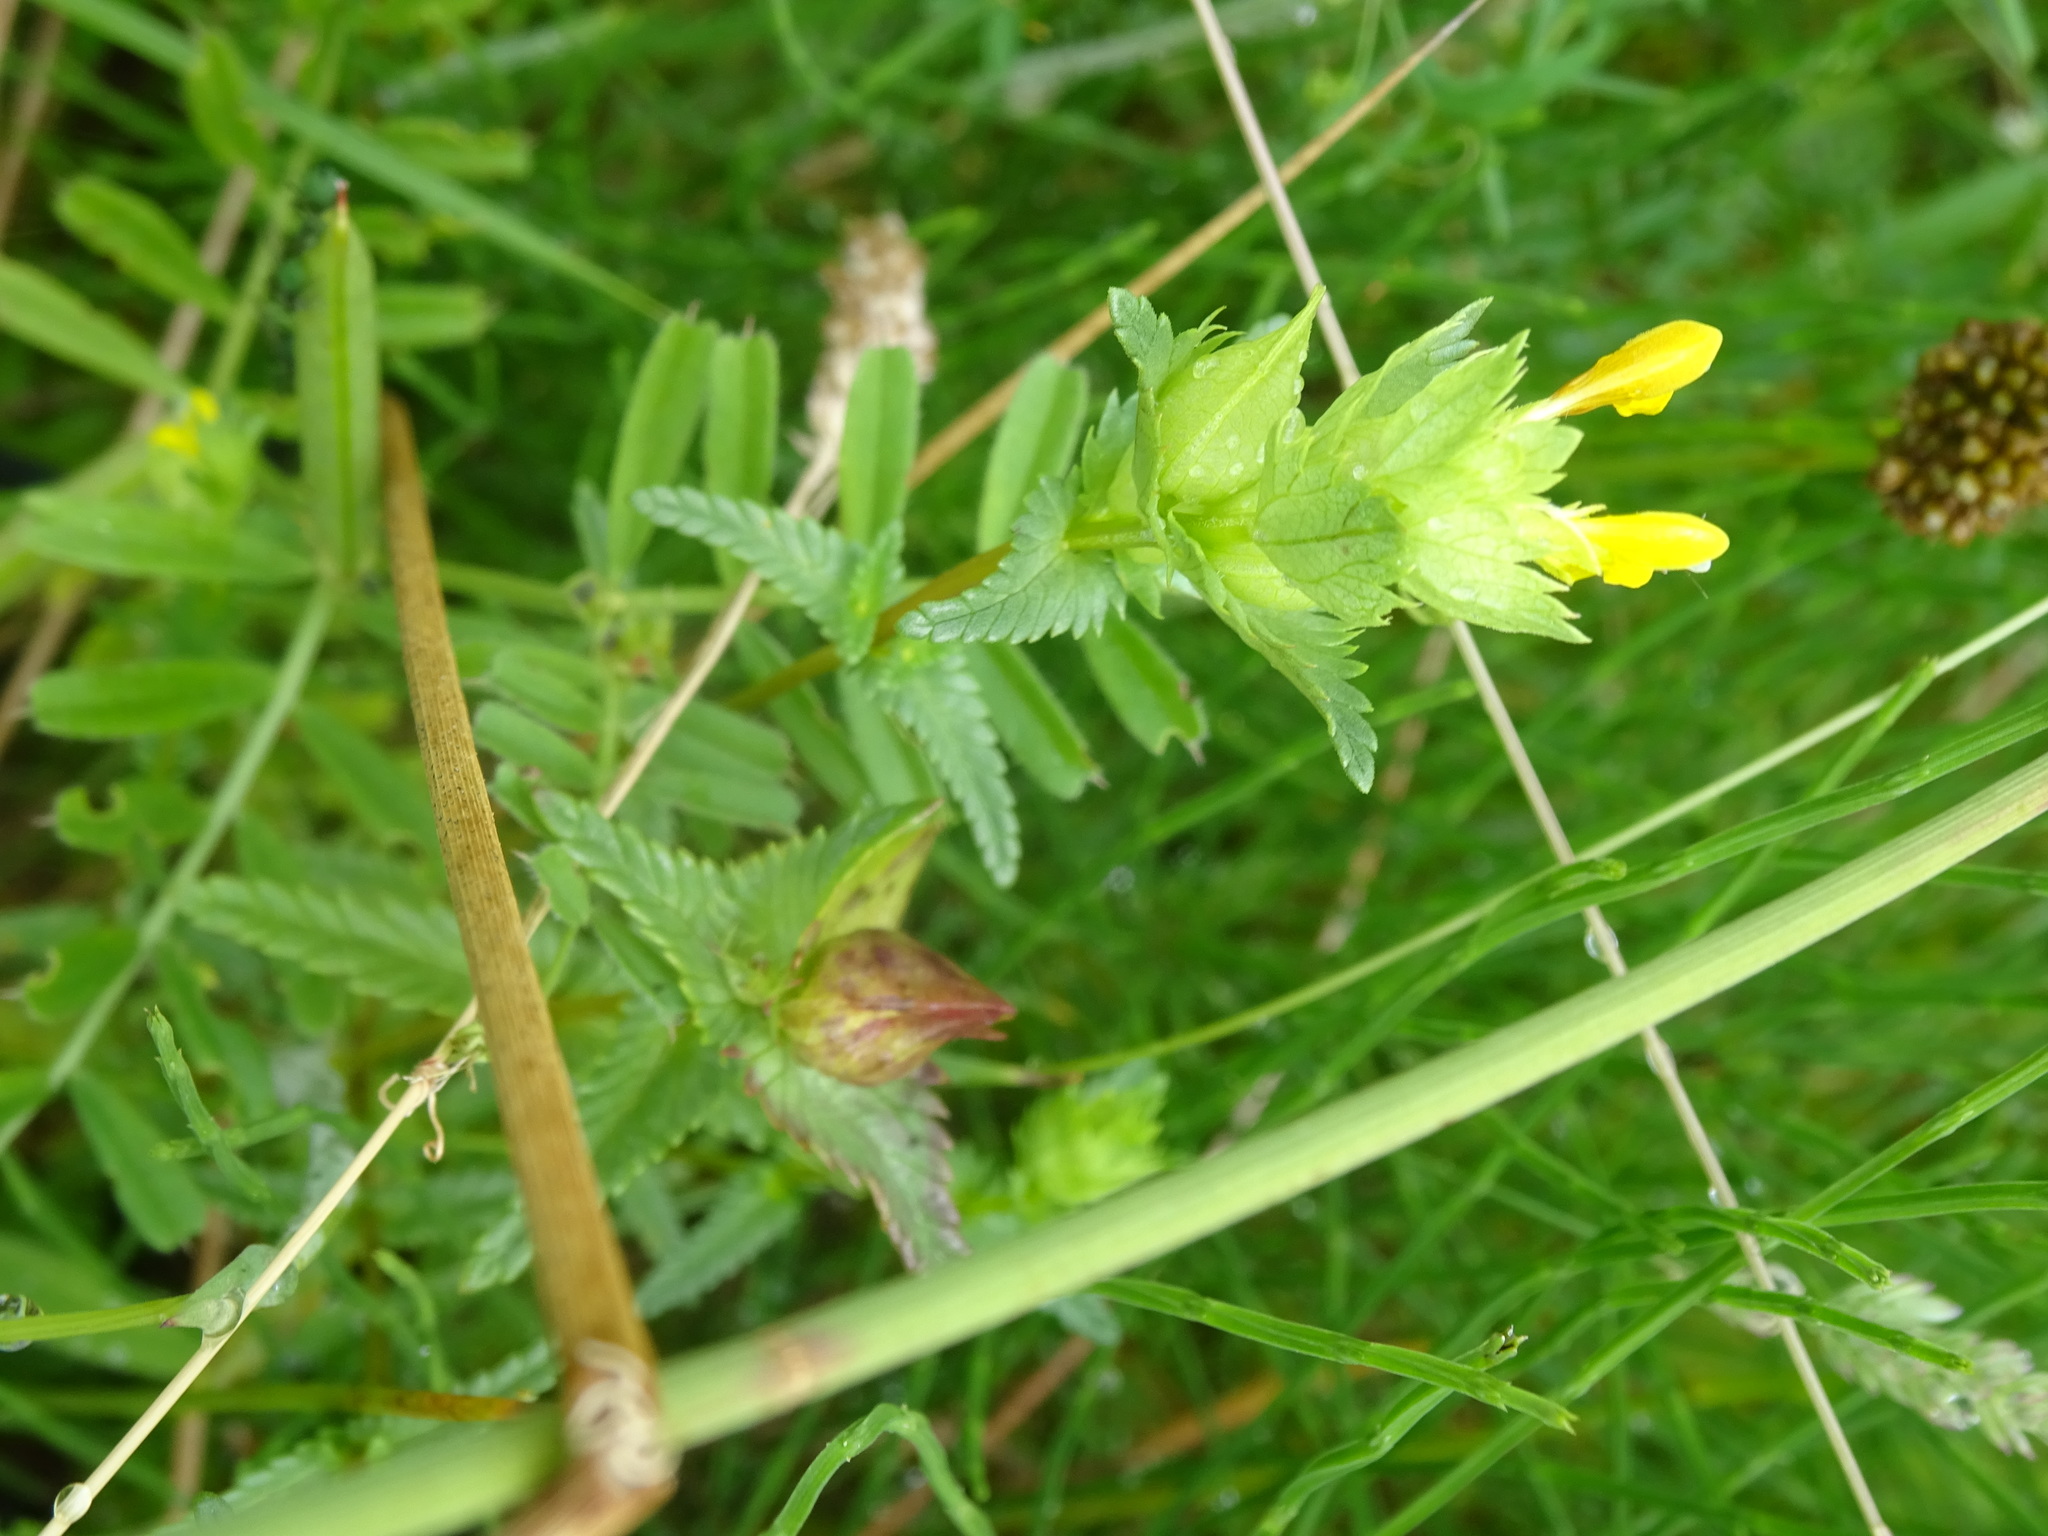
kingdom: Plantae
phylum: Tracheophyta
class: Magnoliopsida
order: Lamiales
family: Orobanchaceae
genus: Rhinanthus
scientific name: Rhinanthus minor
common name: Yellow-rattle
